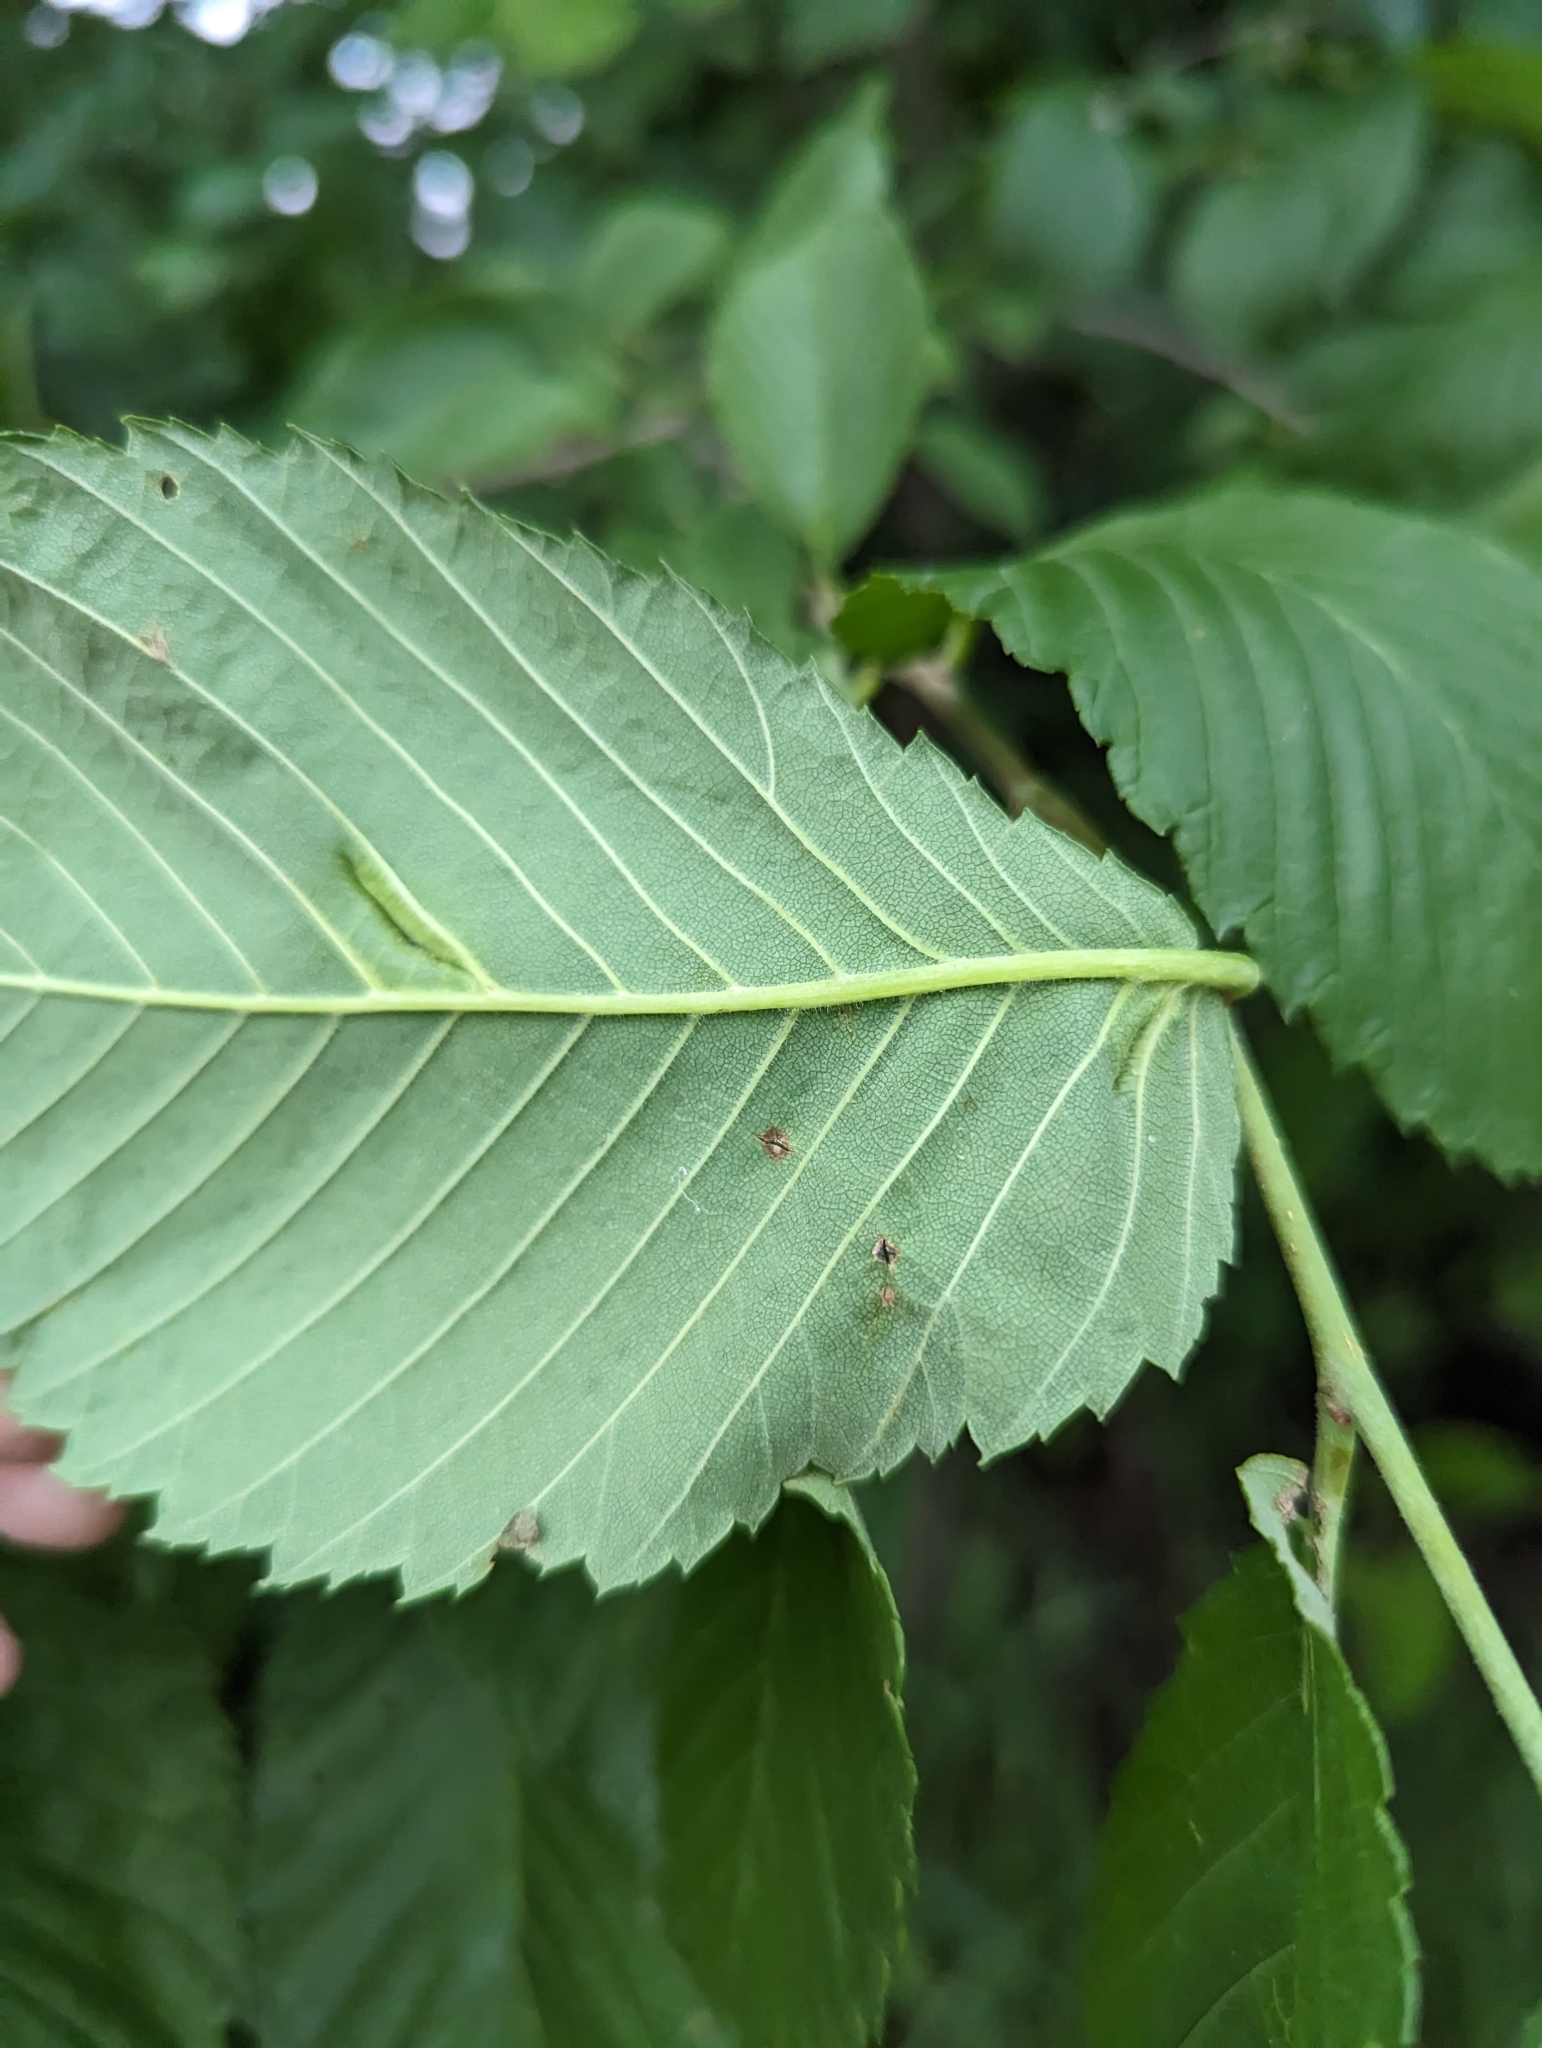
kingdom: Animalia
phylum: Arthropoda
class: Insecta
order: Hemiptera
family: Aphididae
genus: Colopha
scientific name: Colopha ulmicola
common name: Elm cockscombgall aphid
